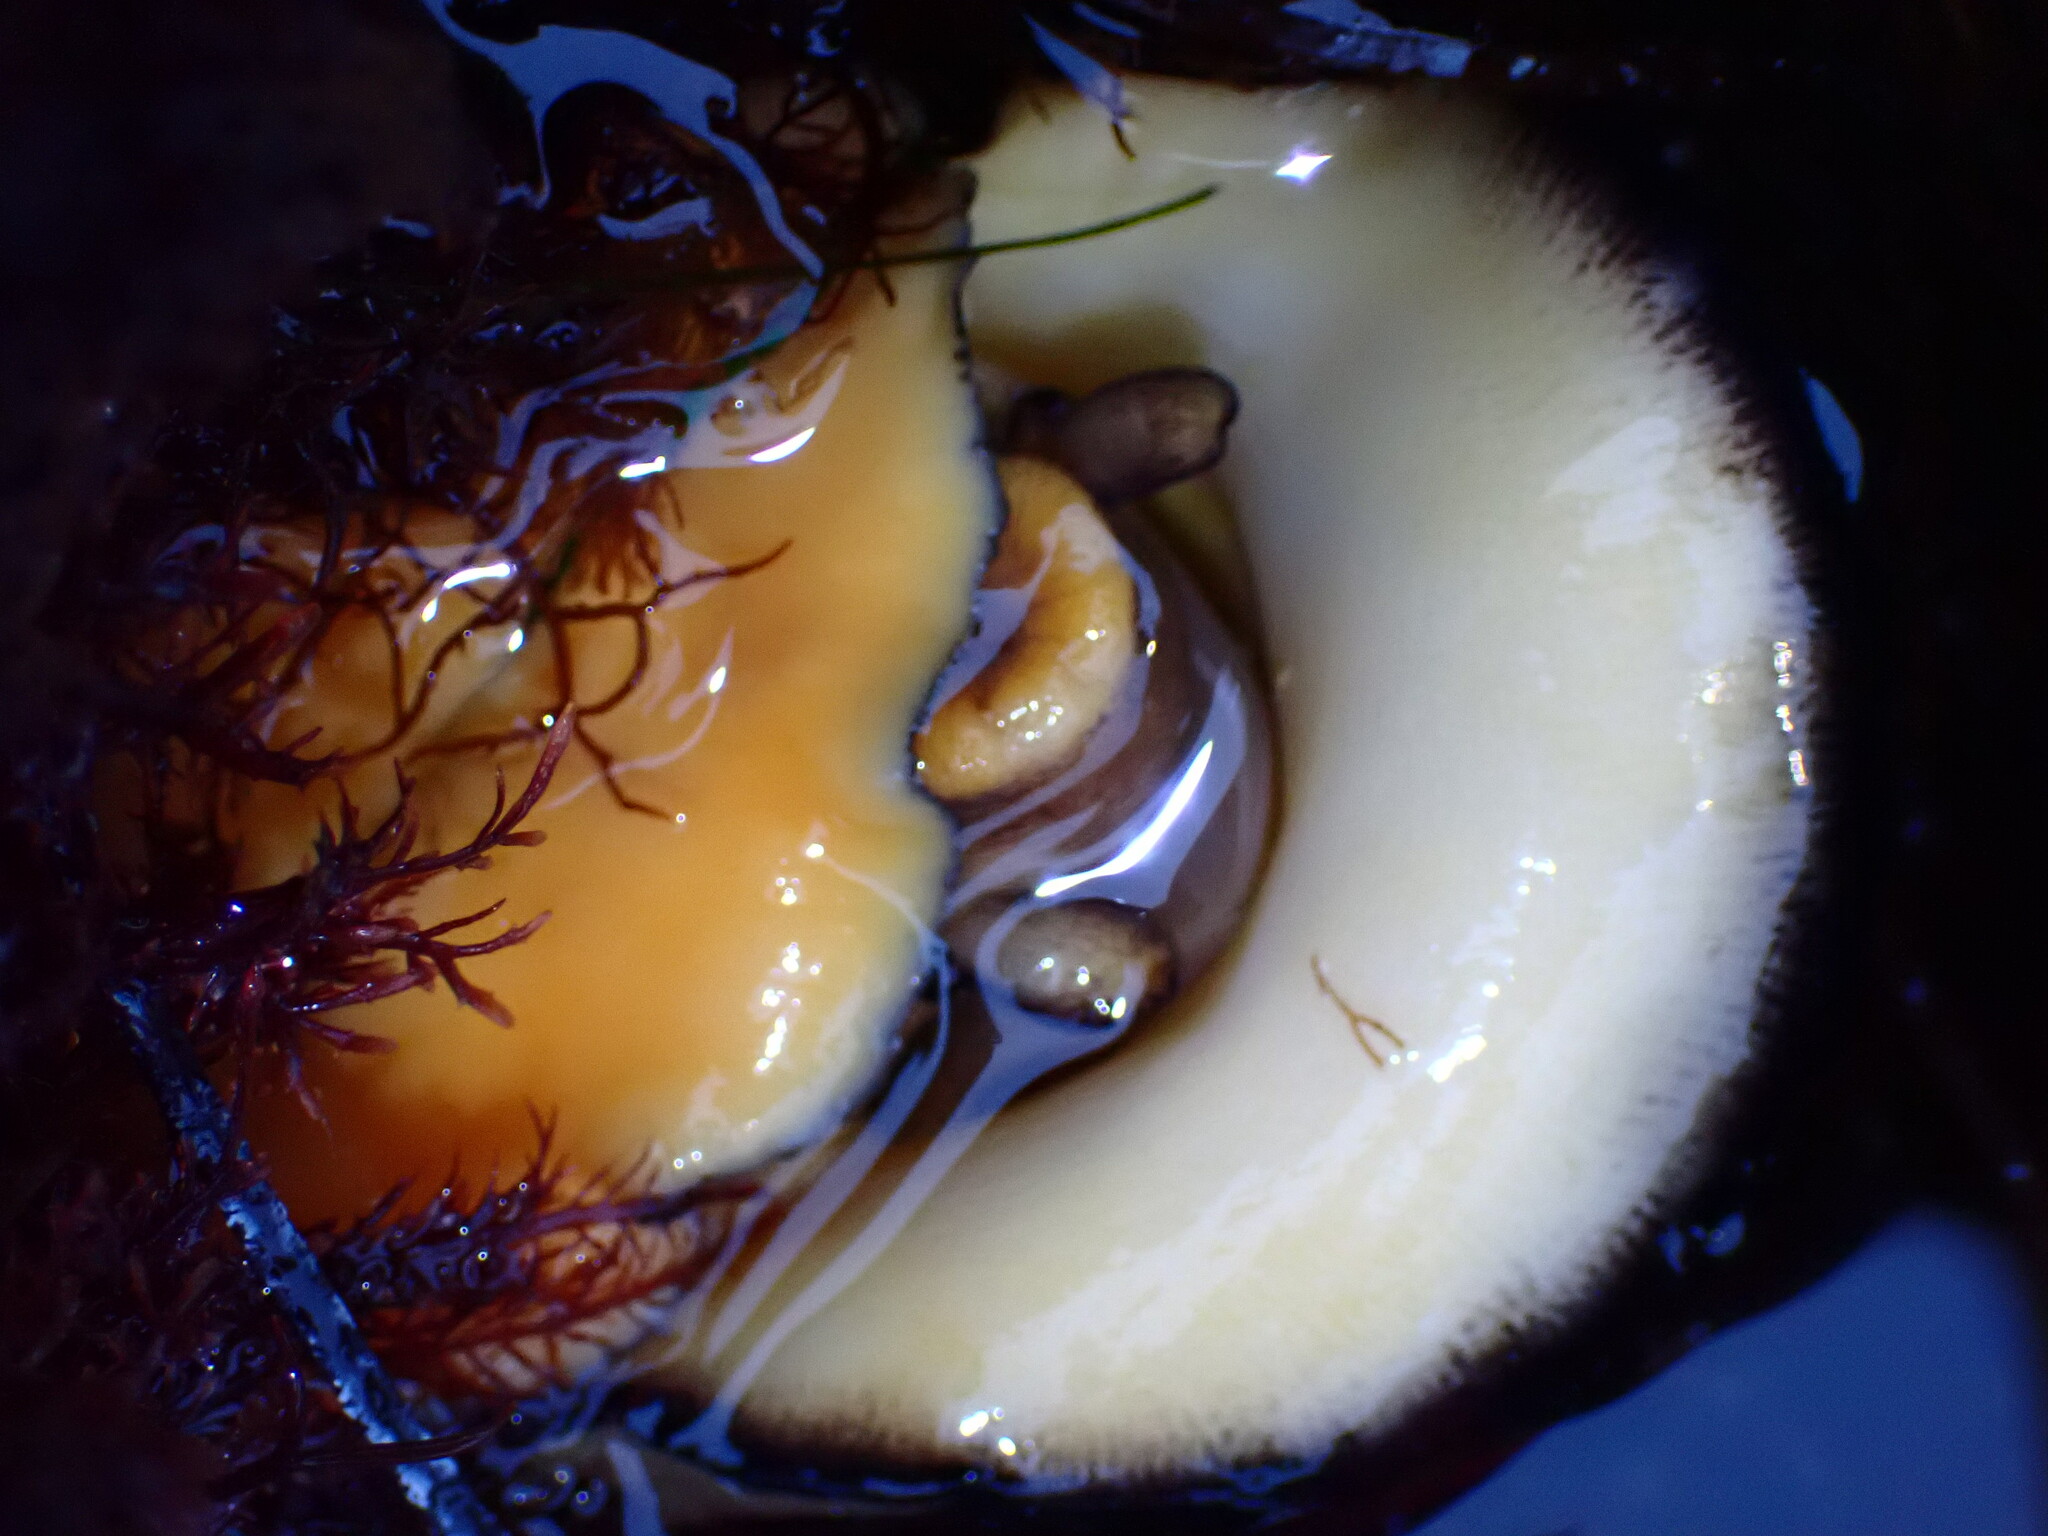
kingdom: Animalia
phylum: Mollusca
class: Gastropoda
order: Lepetellida
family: Fissurellidae
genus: Megathura
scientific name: Megathura crenulata
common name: Giant keyhole limpet
